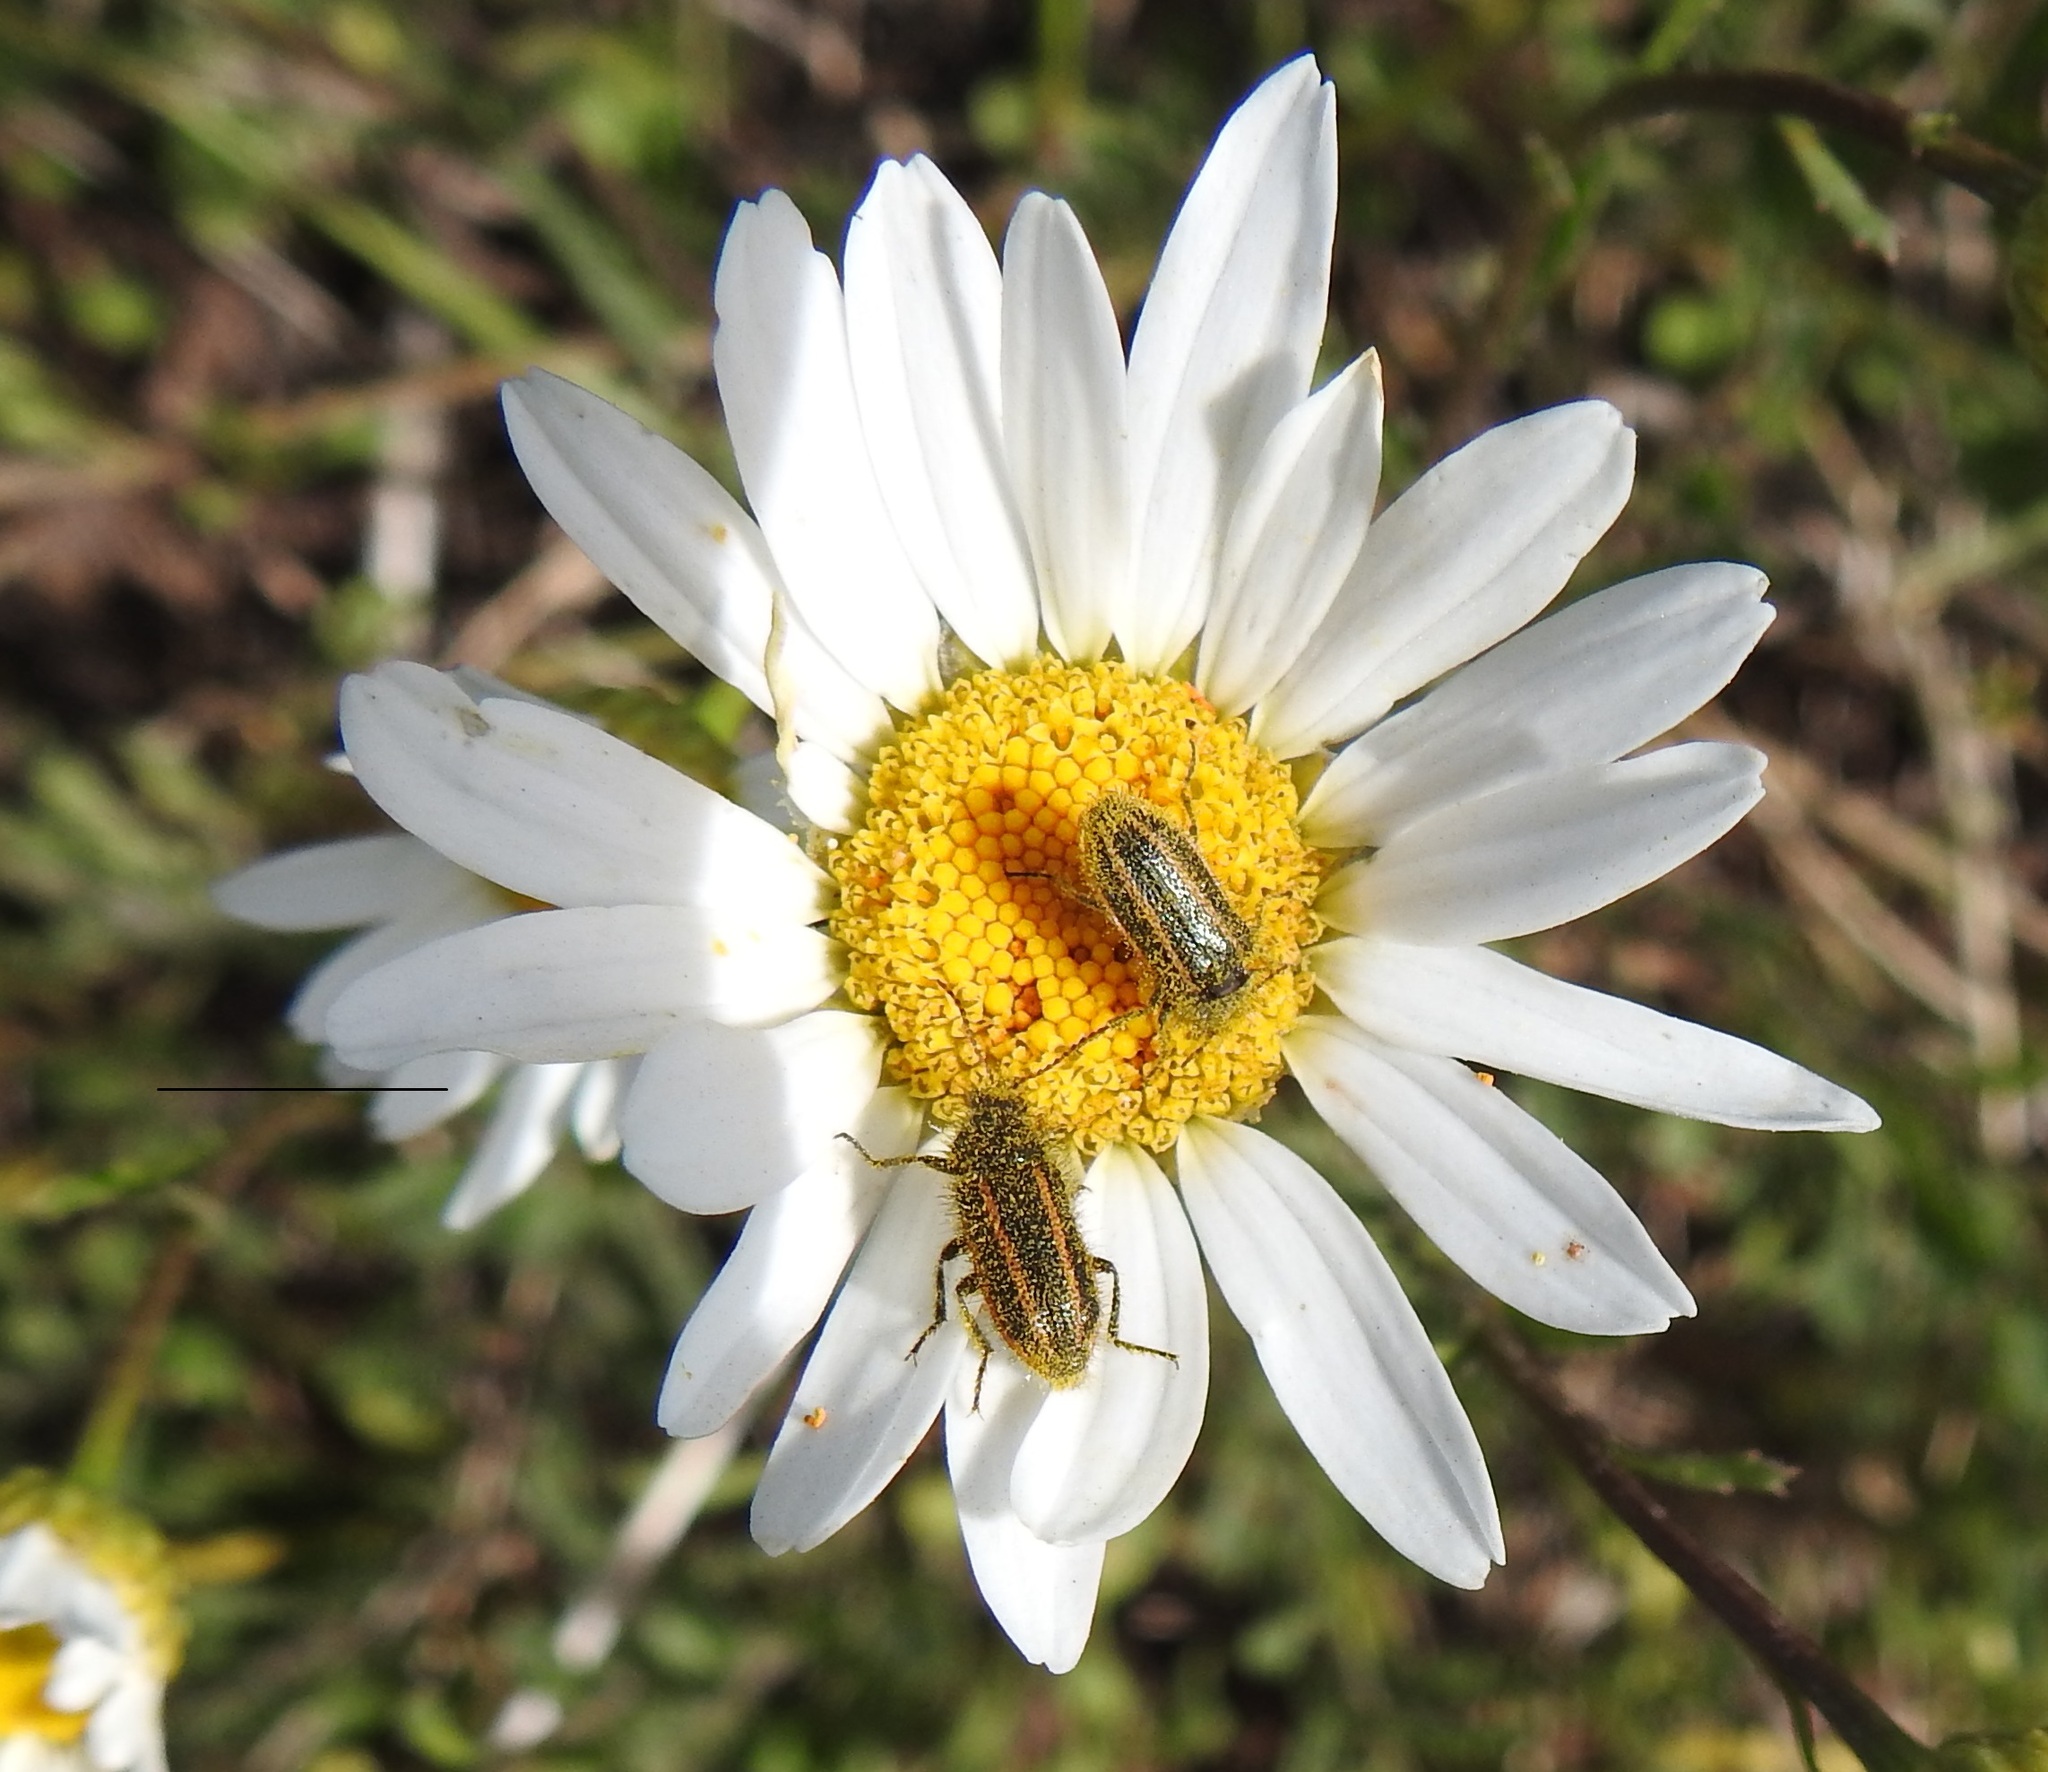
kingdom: Animalia
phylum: Arthropoda
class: Insecta
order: Coleoptera
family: Melyridae
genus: Astylus
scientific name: Astylus
